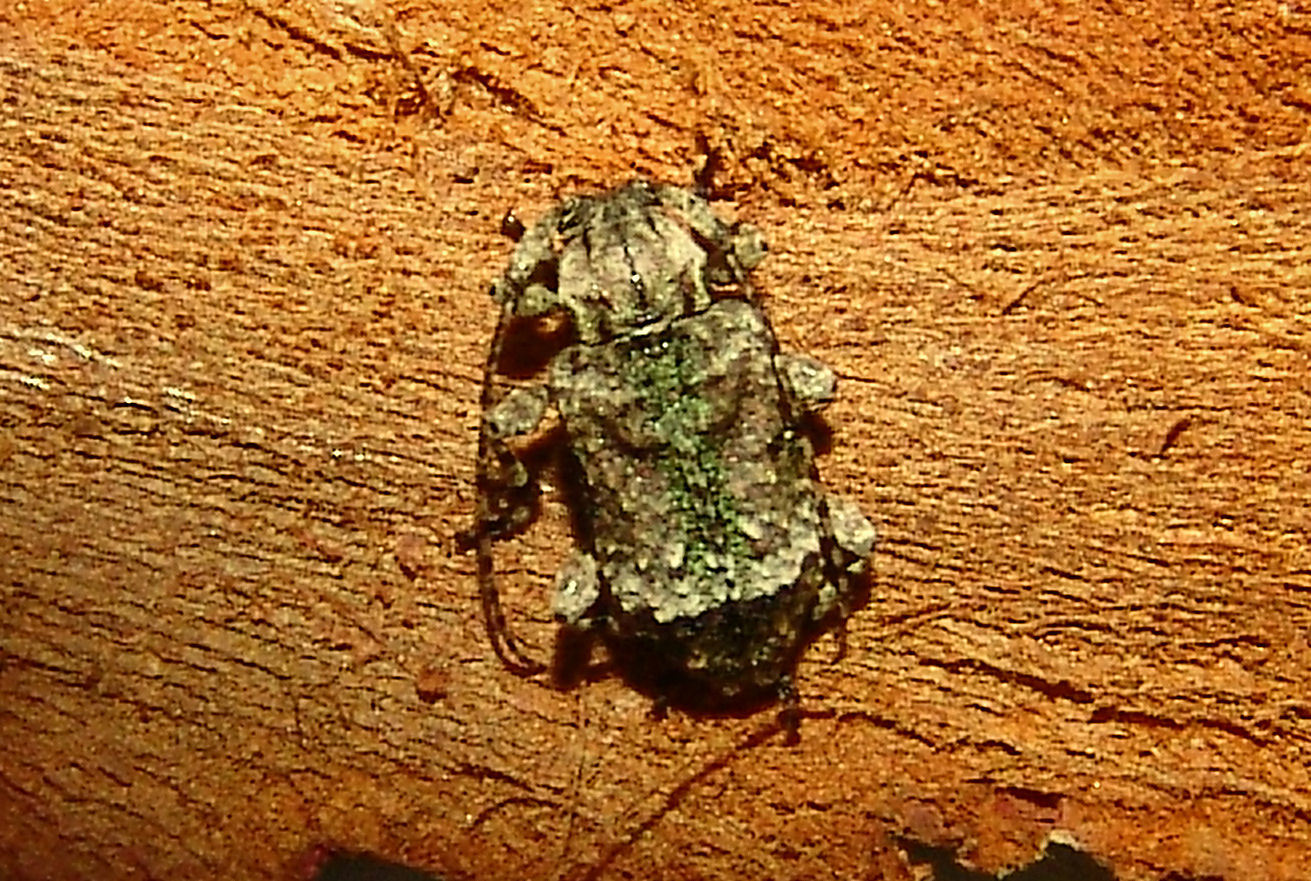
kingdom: Animalia
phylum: Arthropoda
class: Insecta
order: Coleoptera
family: Cerambycidae
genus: Leptostylus
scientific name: Leptostylus transversus
